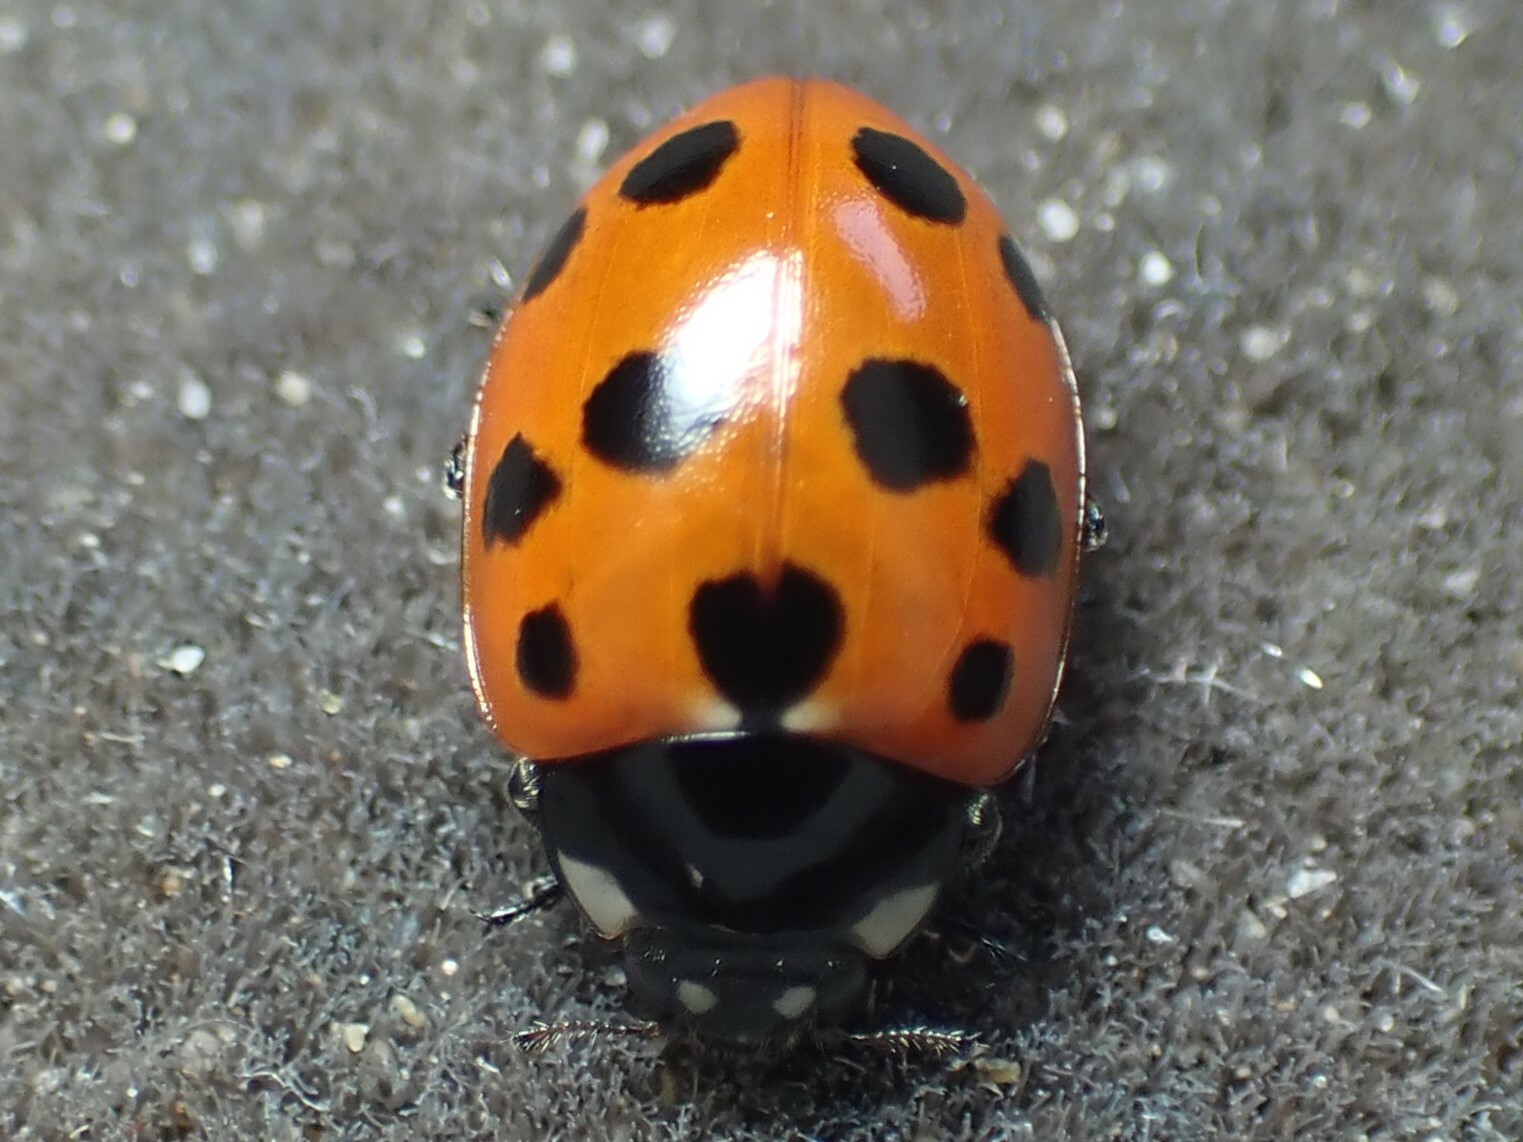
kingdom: Animalia
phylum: Arthropoda
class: Insecta
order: Coleoptera
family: Coccinellidae
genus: Coccinella
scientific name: Coccinella undecimpunctata
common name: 11-spot ladybird
